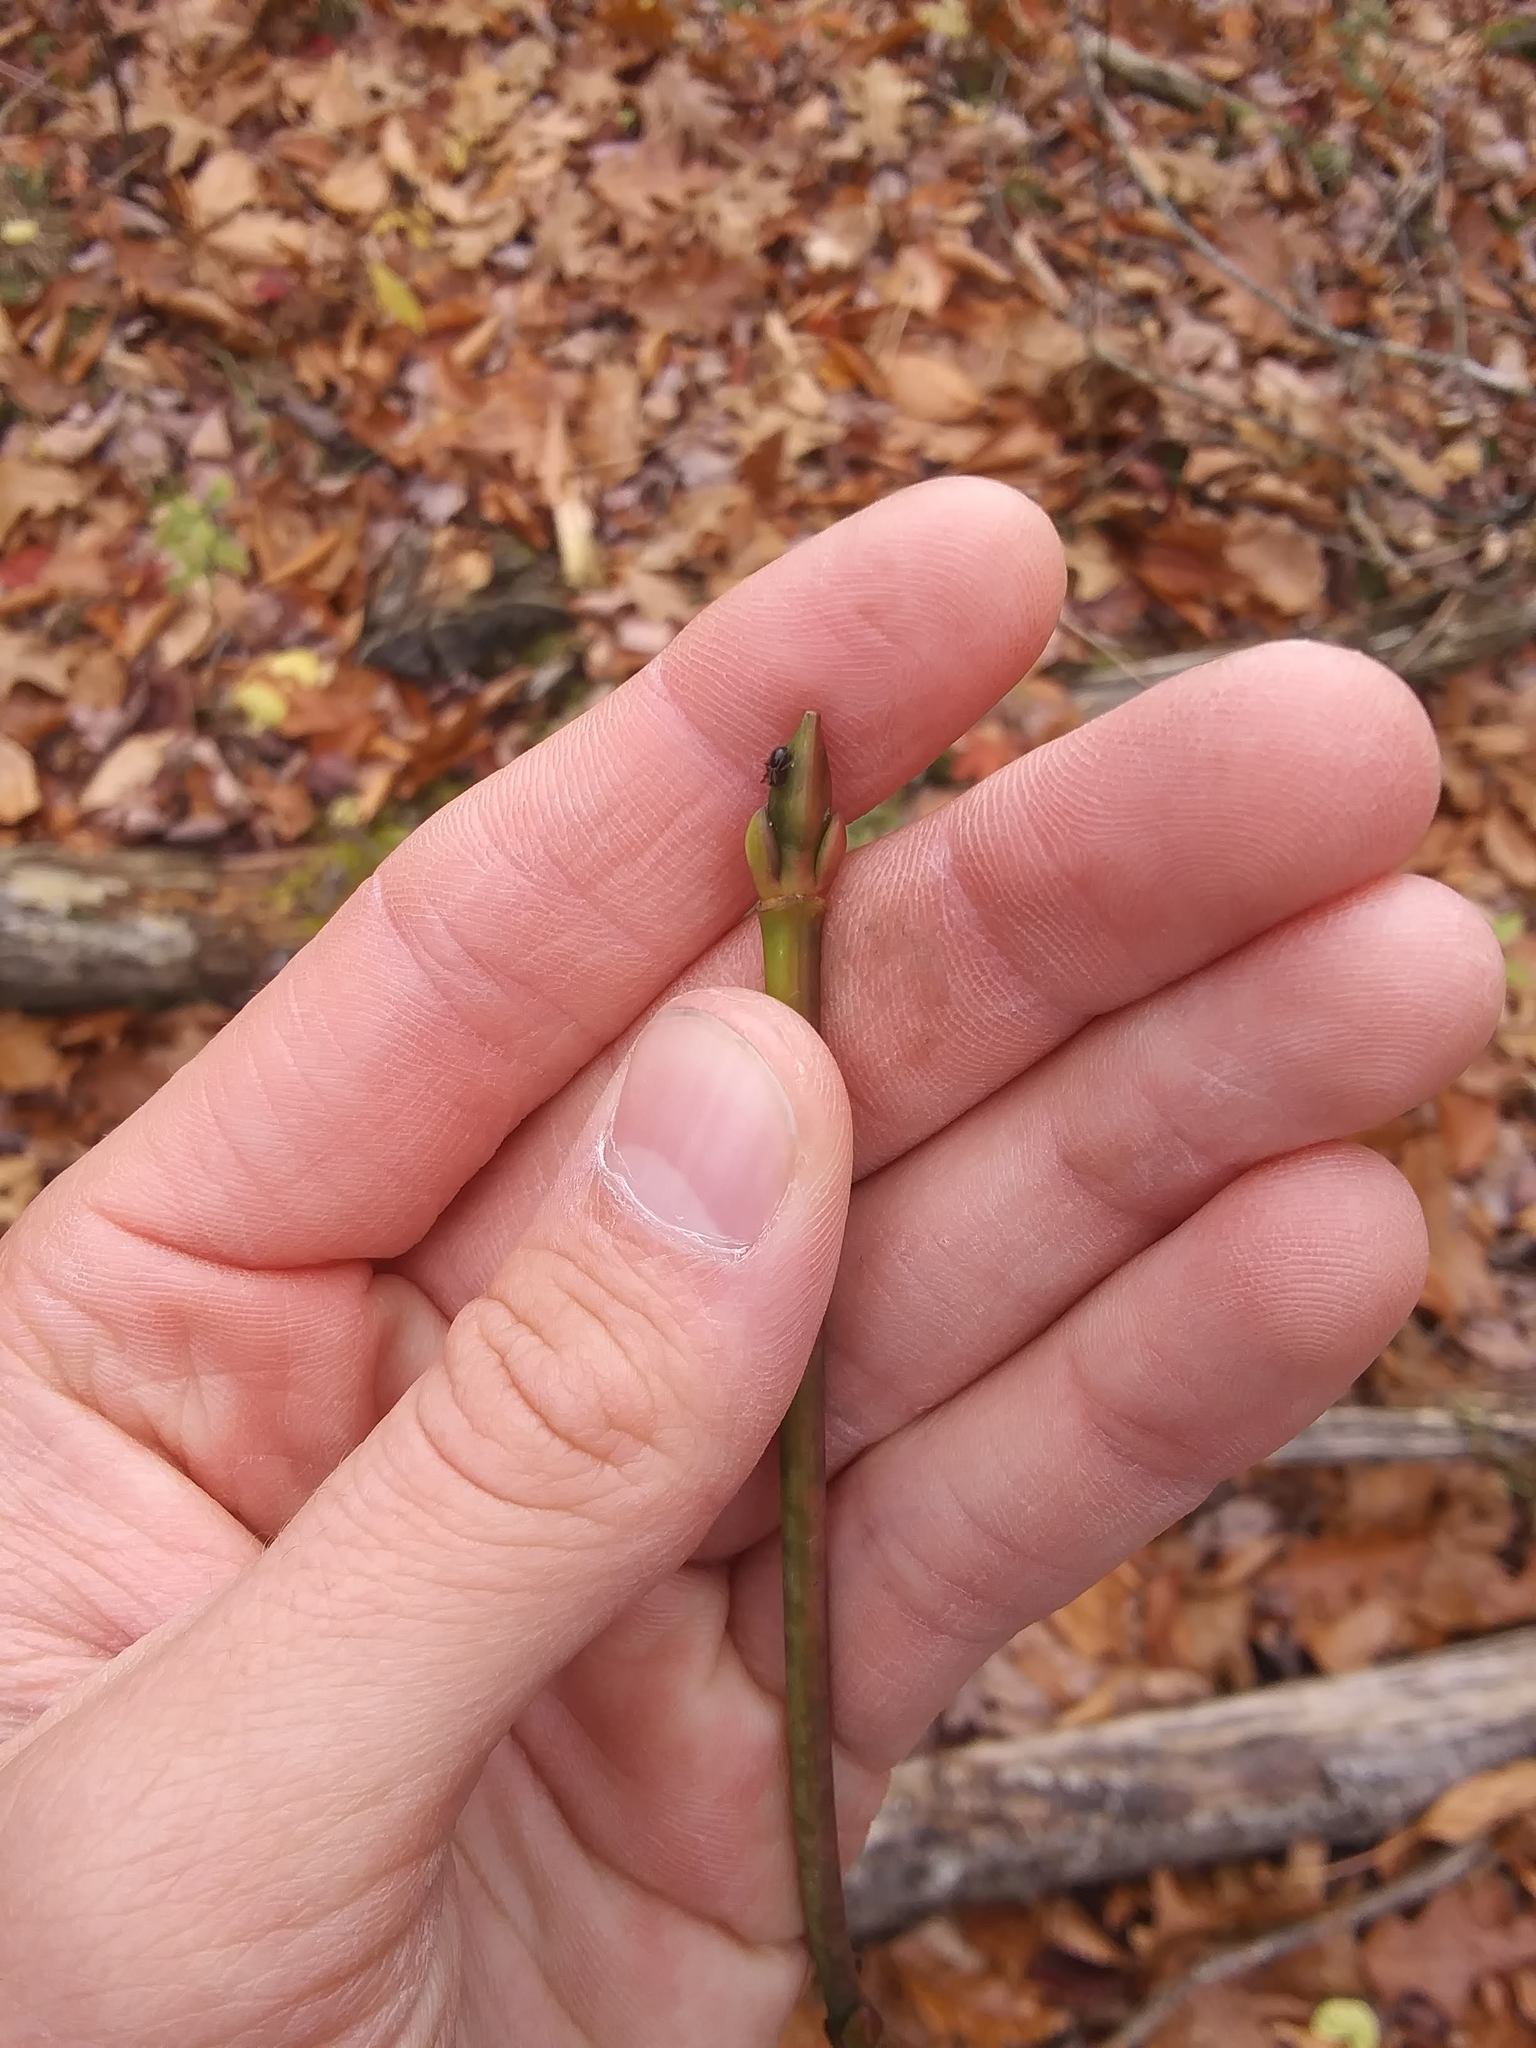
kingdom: Plantae
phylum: Tracheophyta
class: Magnoliopsida
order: Sapindales
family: Sapindaceae
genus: Acer
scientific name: Acer pensylvanicum
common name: Moosewood
